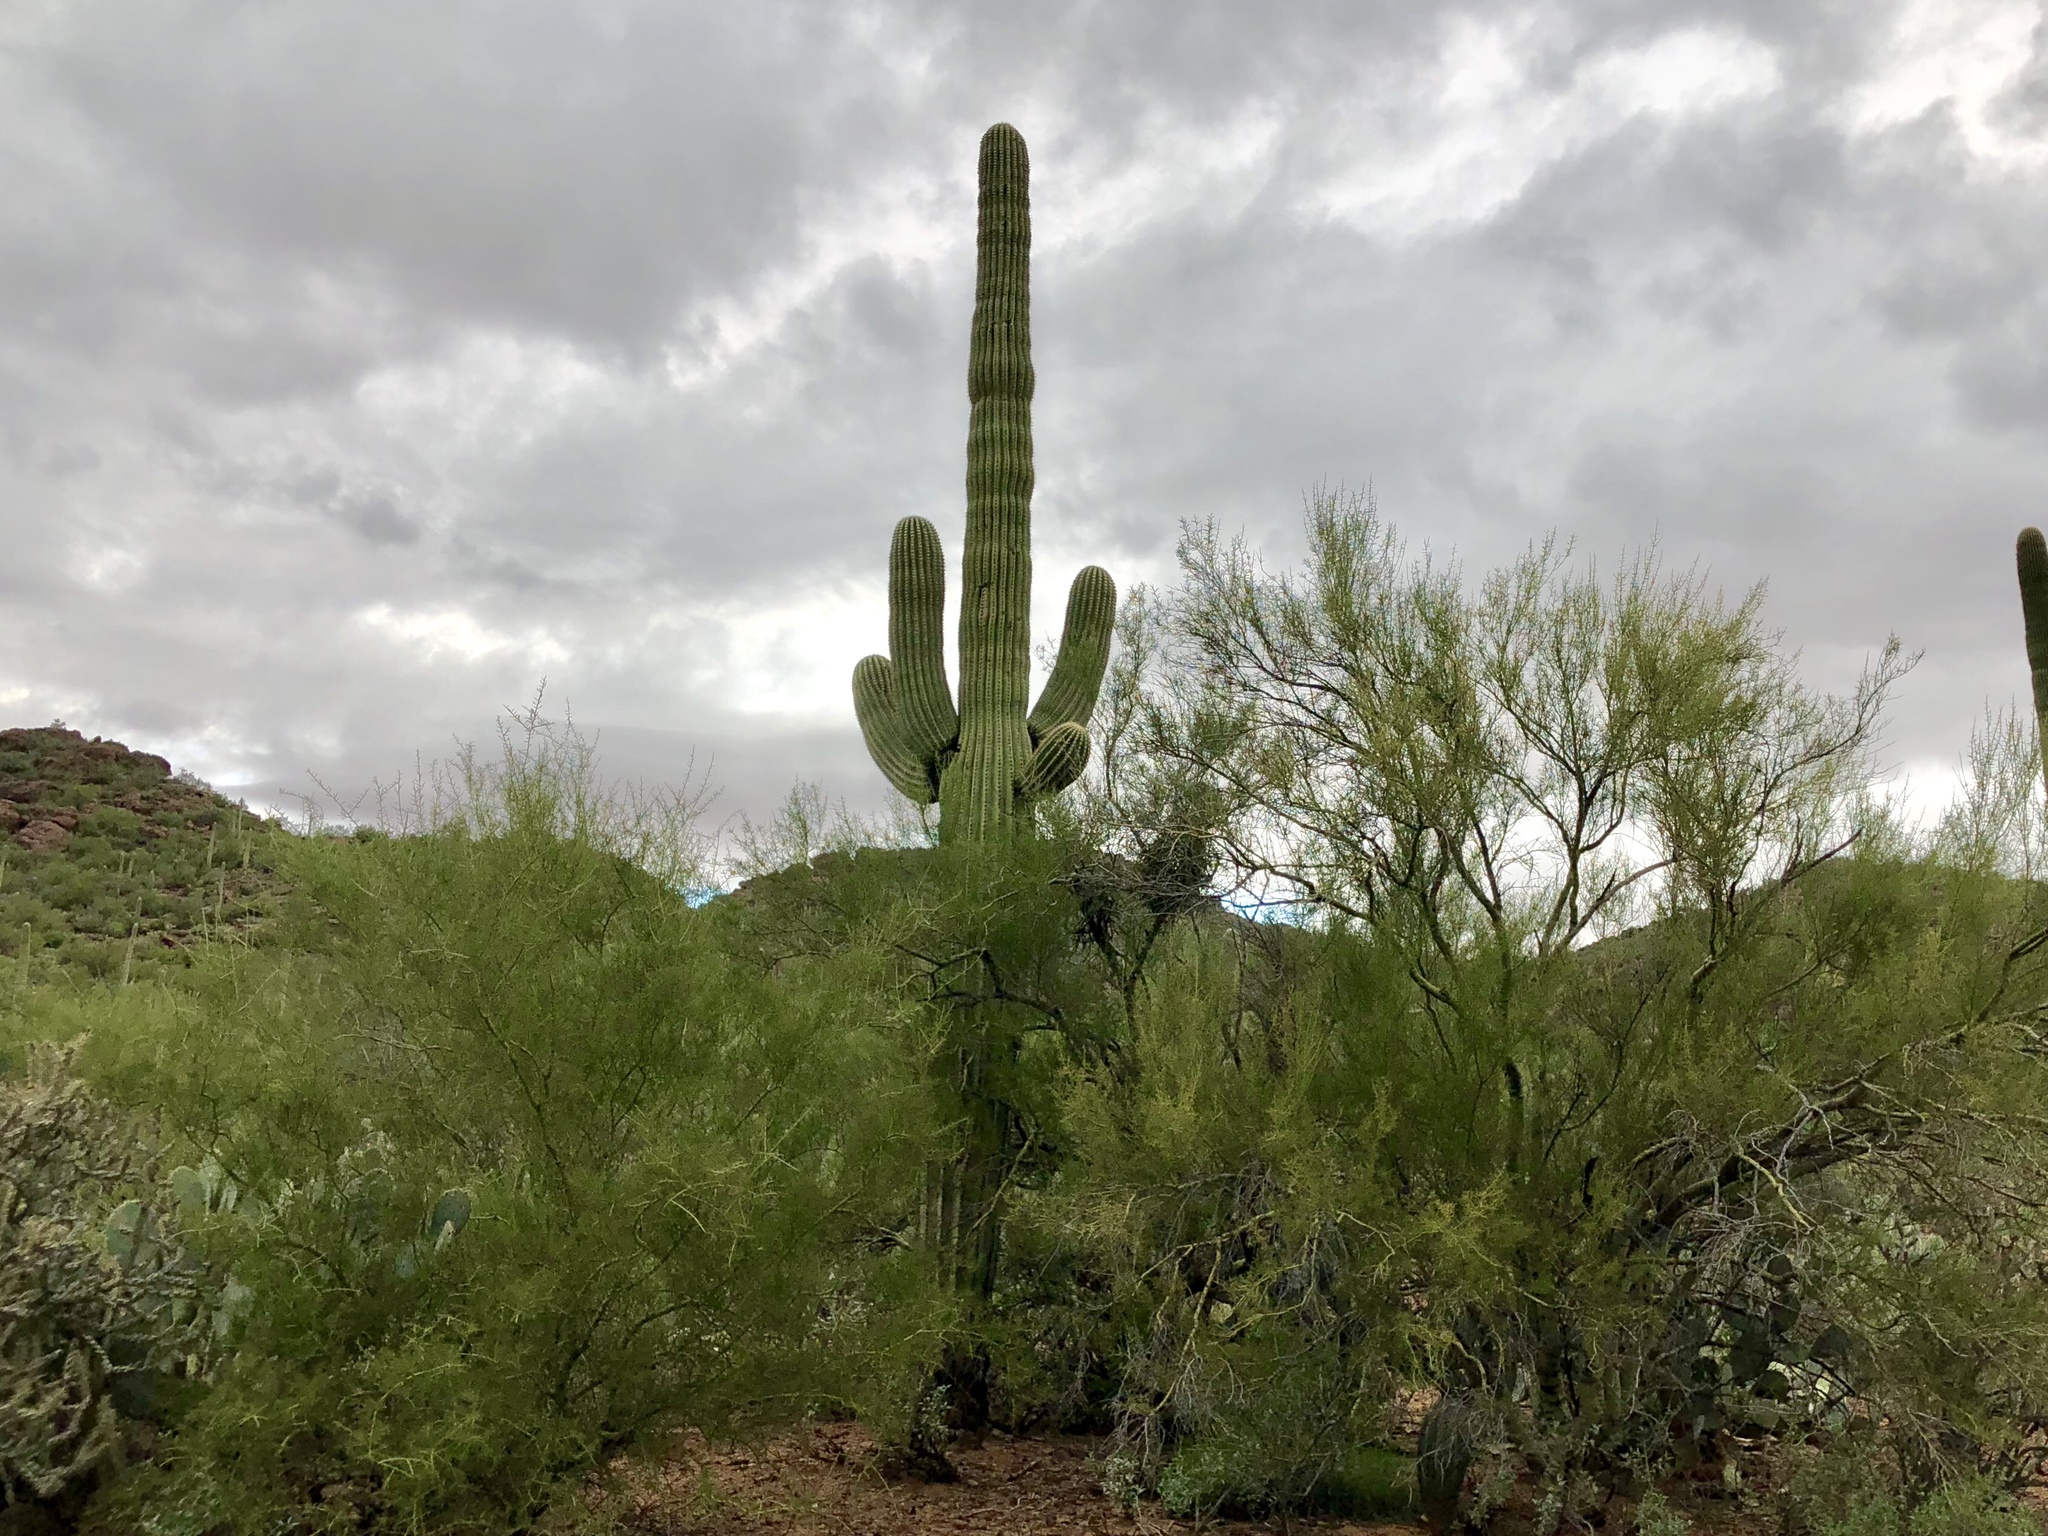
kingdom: Plantae
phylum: Tracheophyta
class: Magnoliopsida
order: Caryophyllales
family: Cactaceae
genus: Carnegiea
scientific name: Carnegiea gigantea
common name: Saguaro
